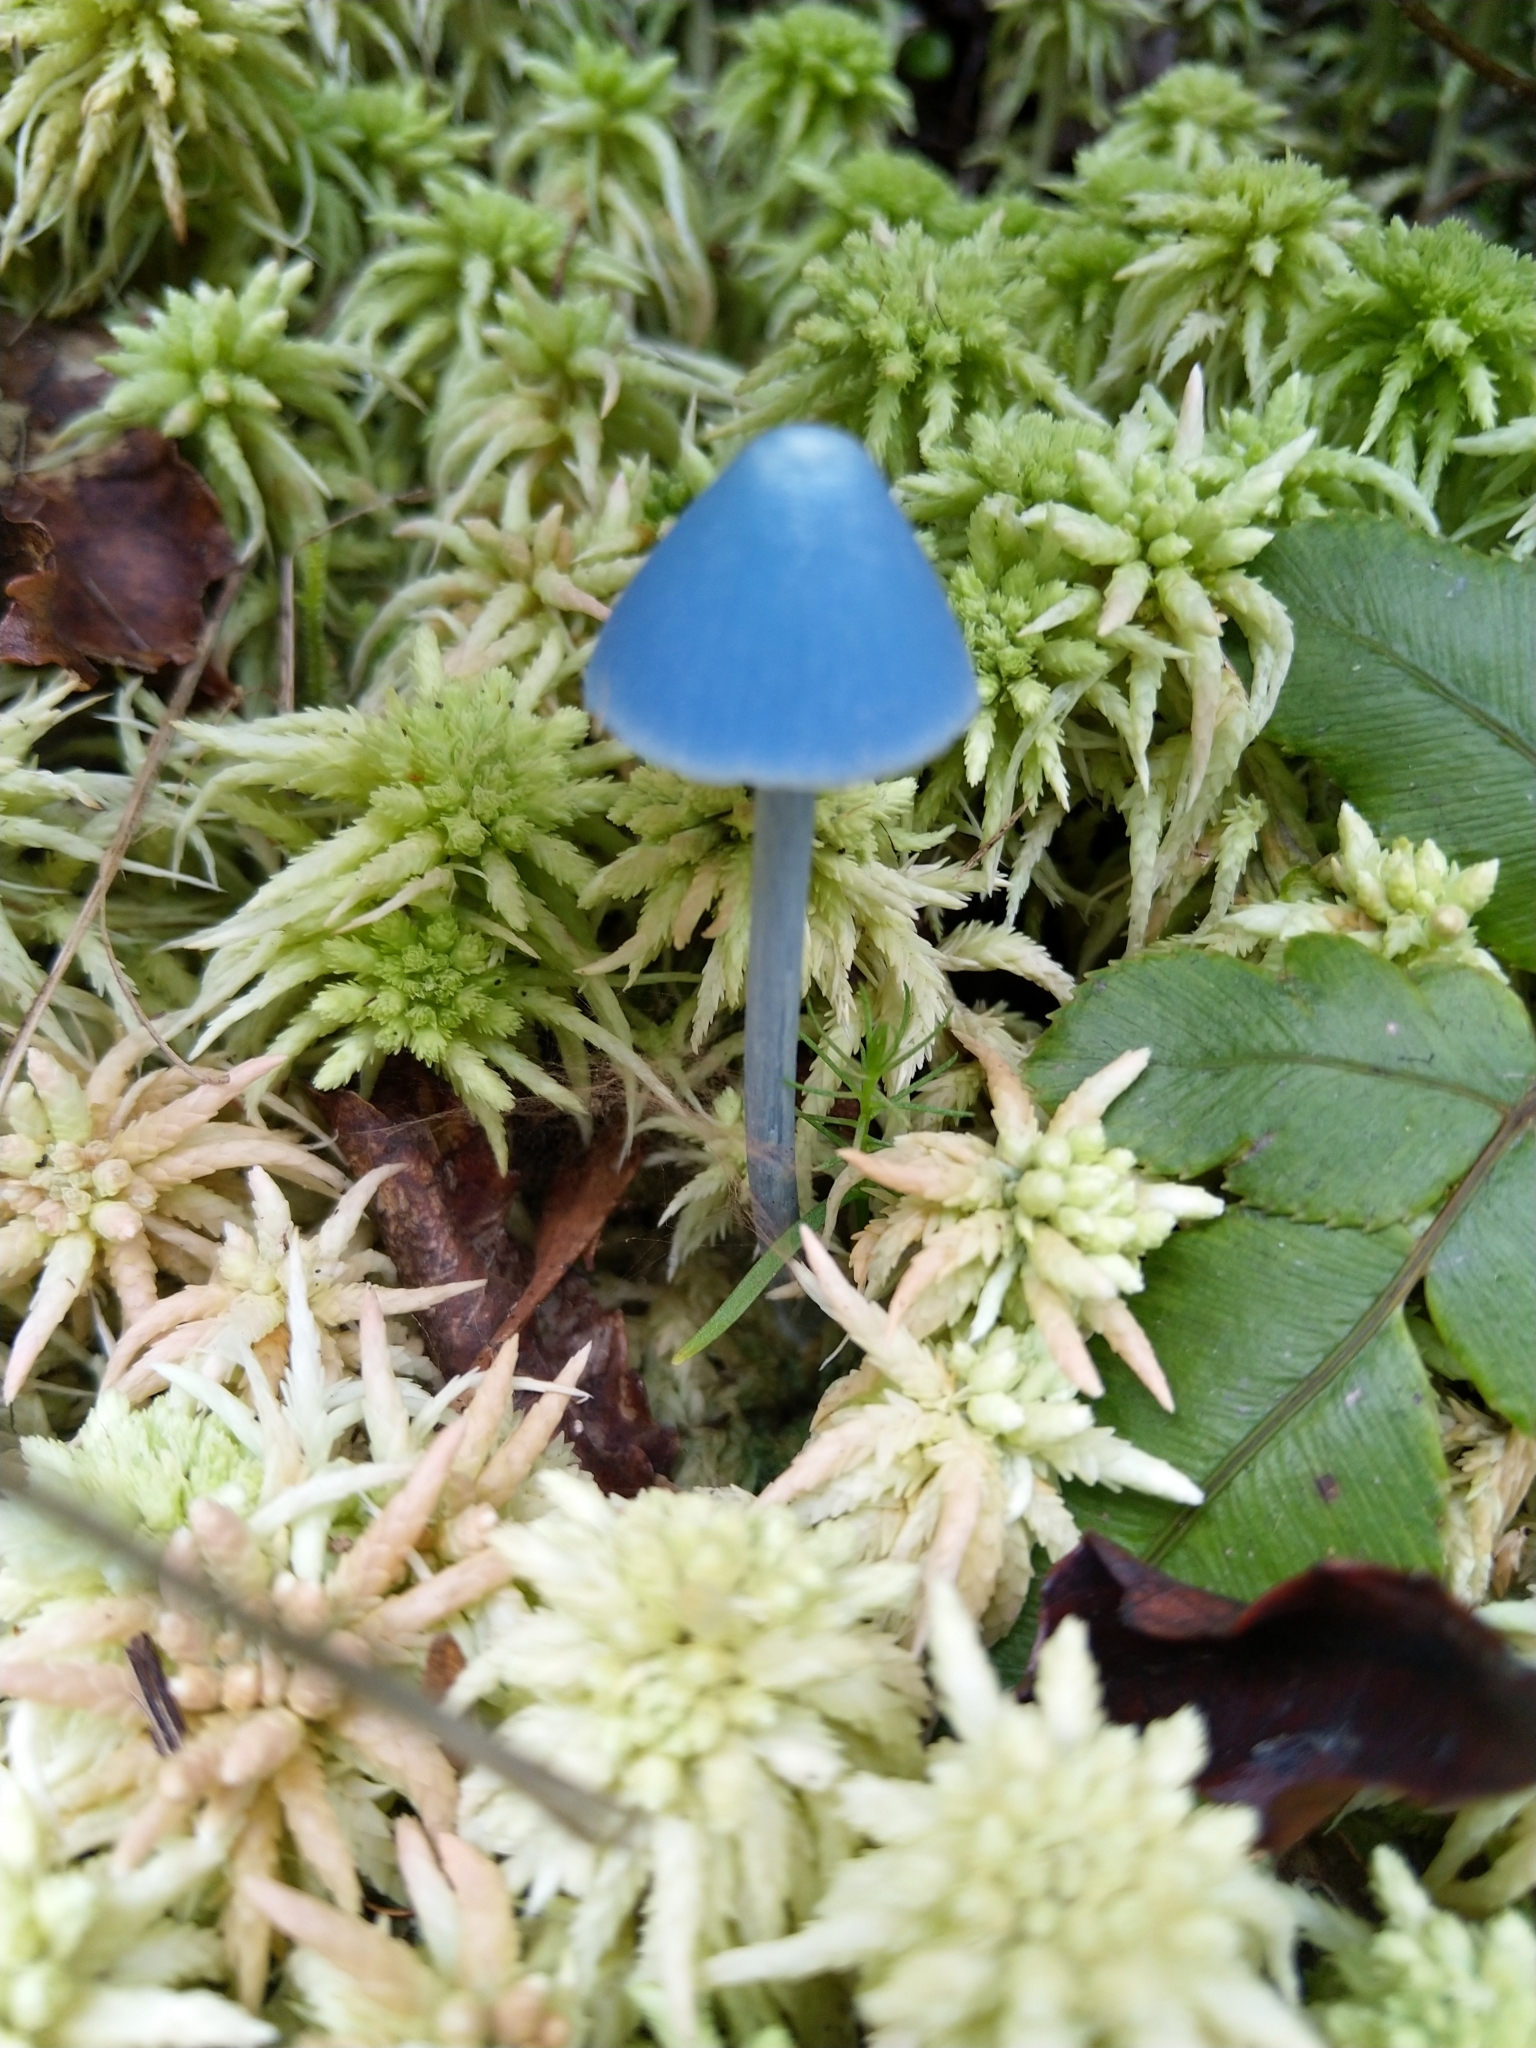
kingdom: Fungi
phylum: Basidiomycota
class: Agaricomycetes
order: Agaricales
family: Entolomataceae
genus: Entoloma
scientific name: Entoloma hochstetteri
